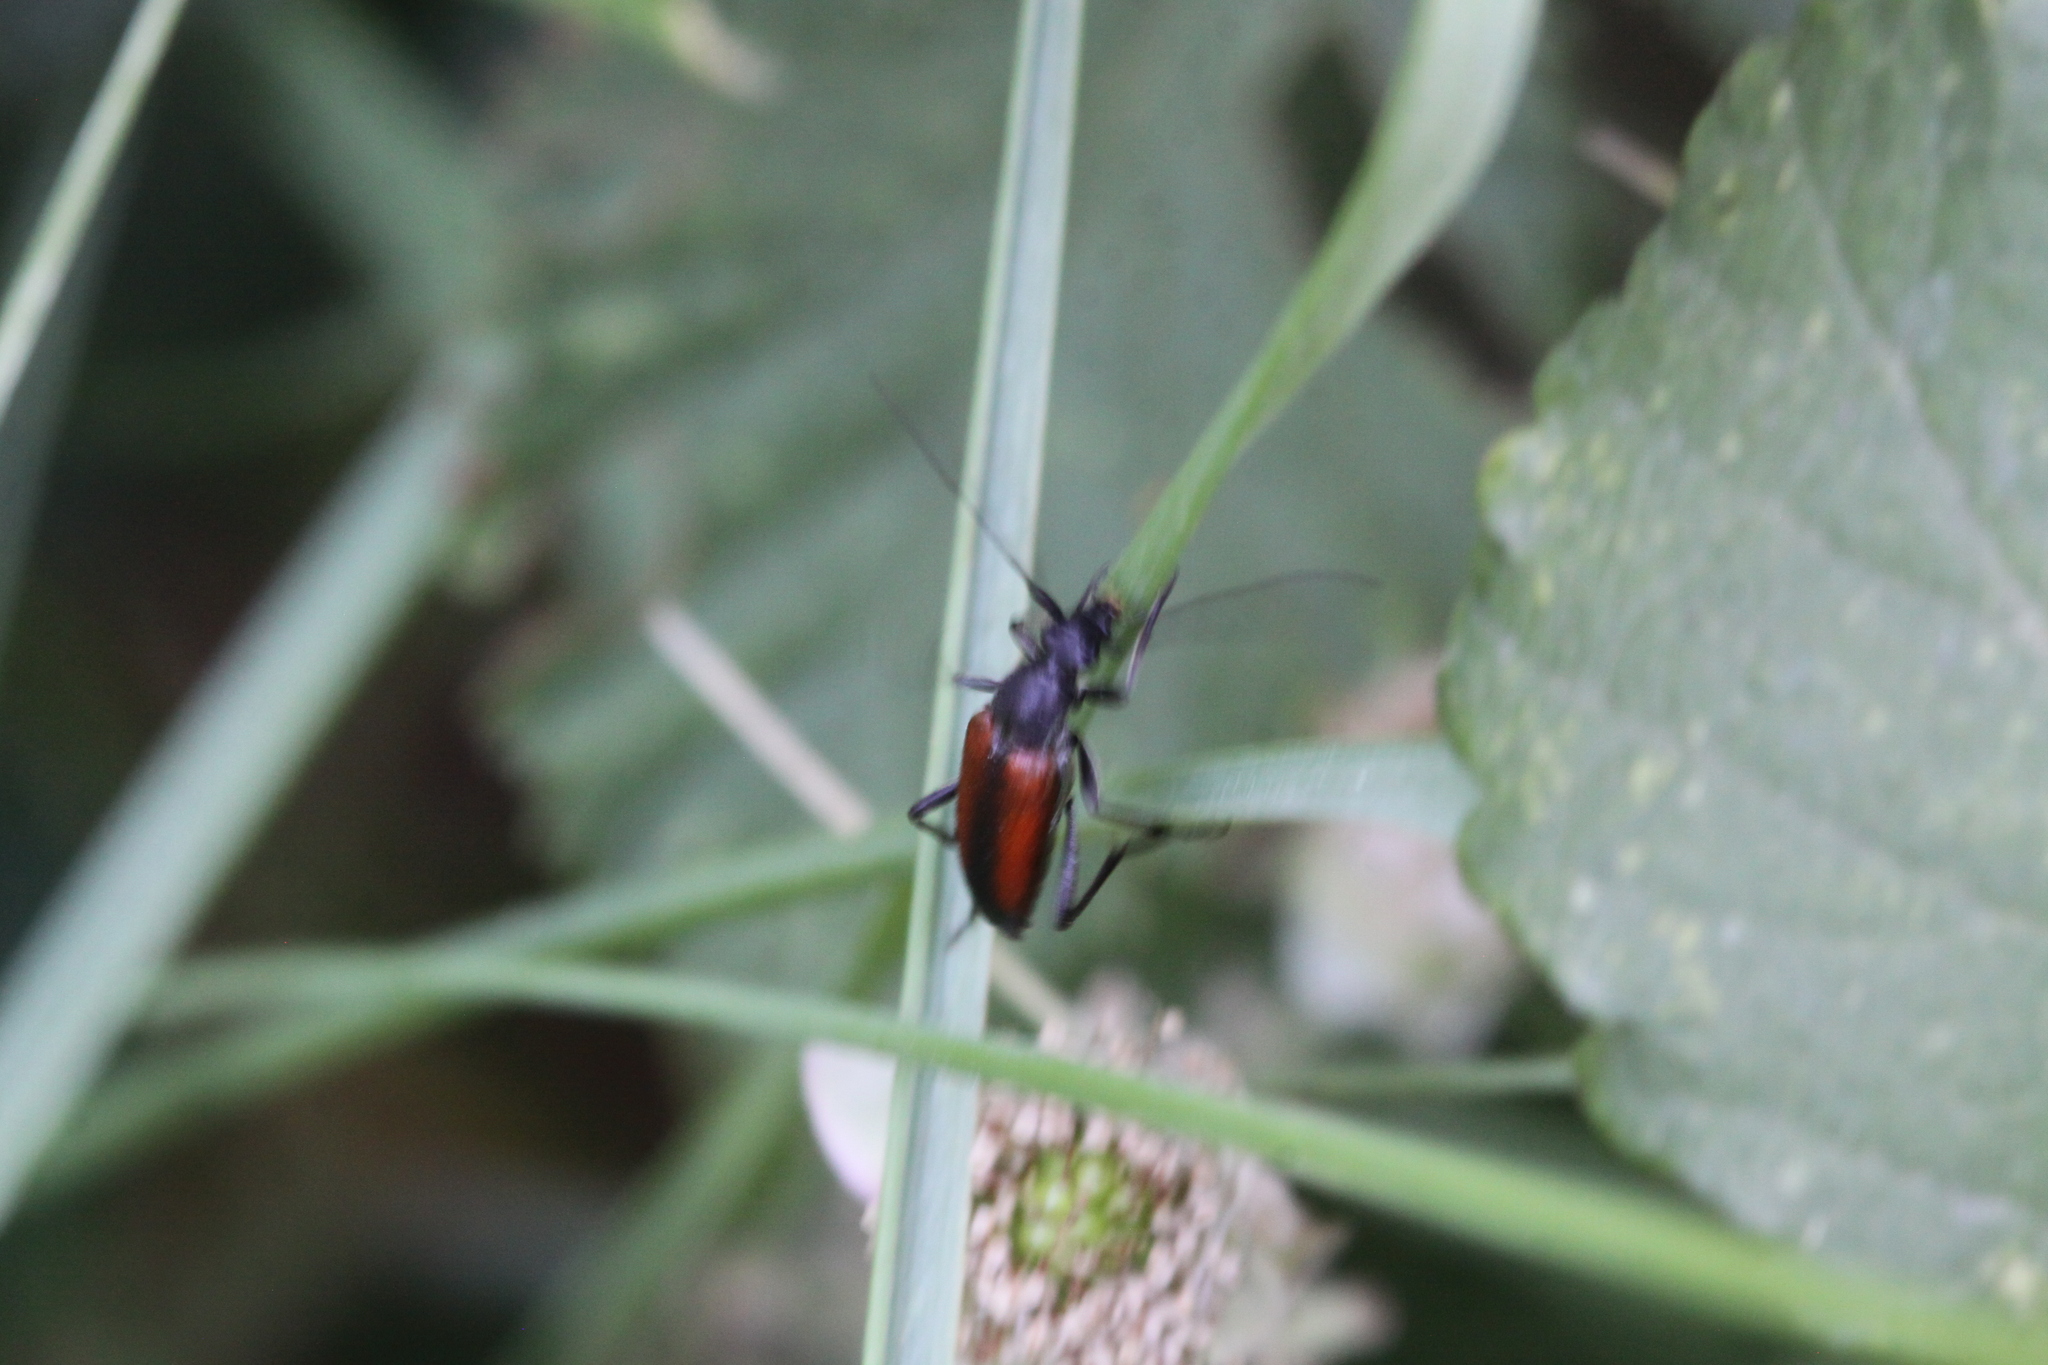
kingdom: Animalia
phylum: Arthropoda
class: Insecta
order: Coleoptera
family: Cerambycidae
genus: Stenurella
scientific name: Stenurella melanura
